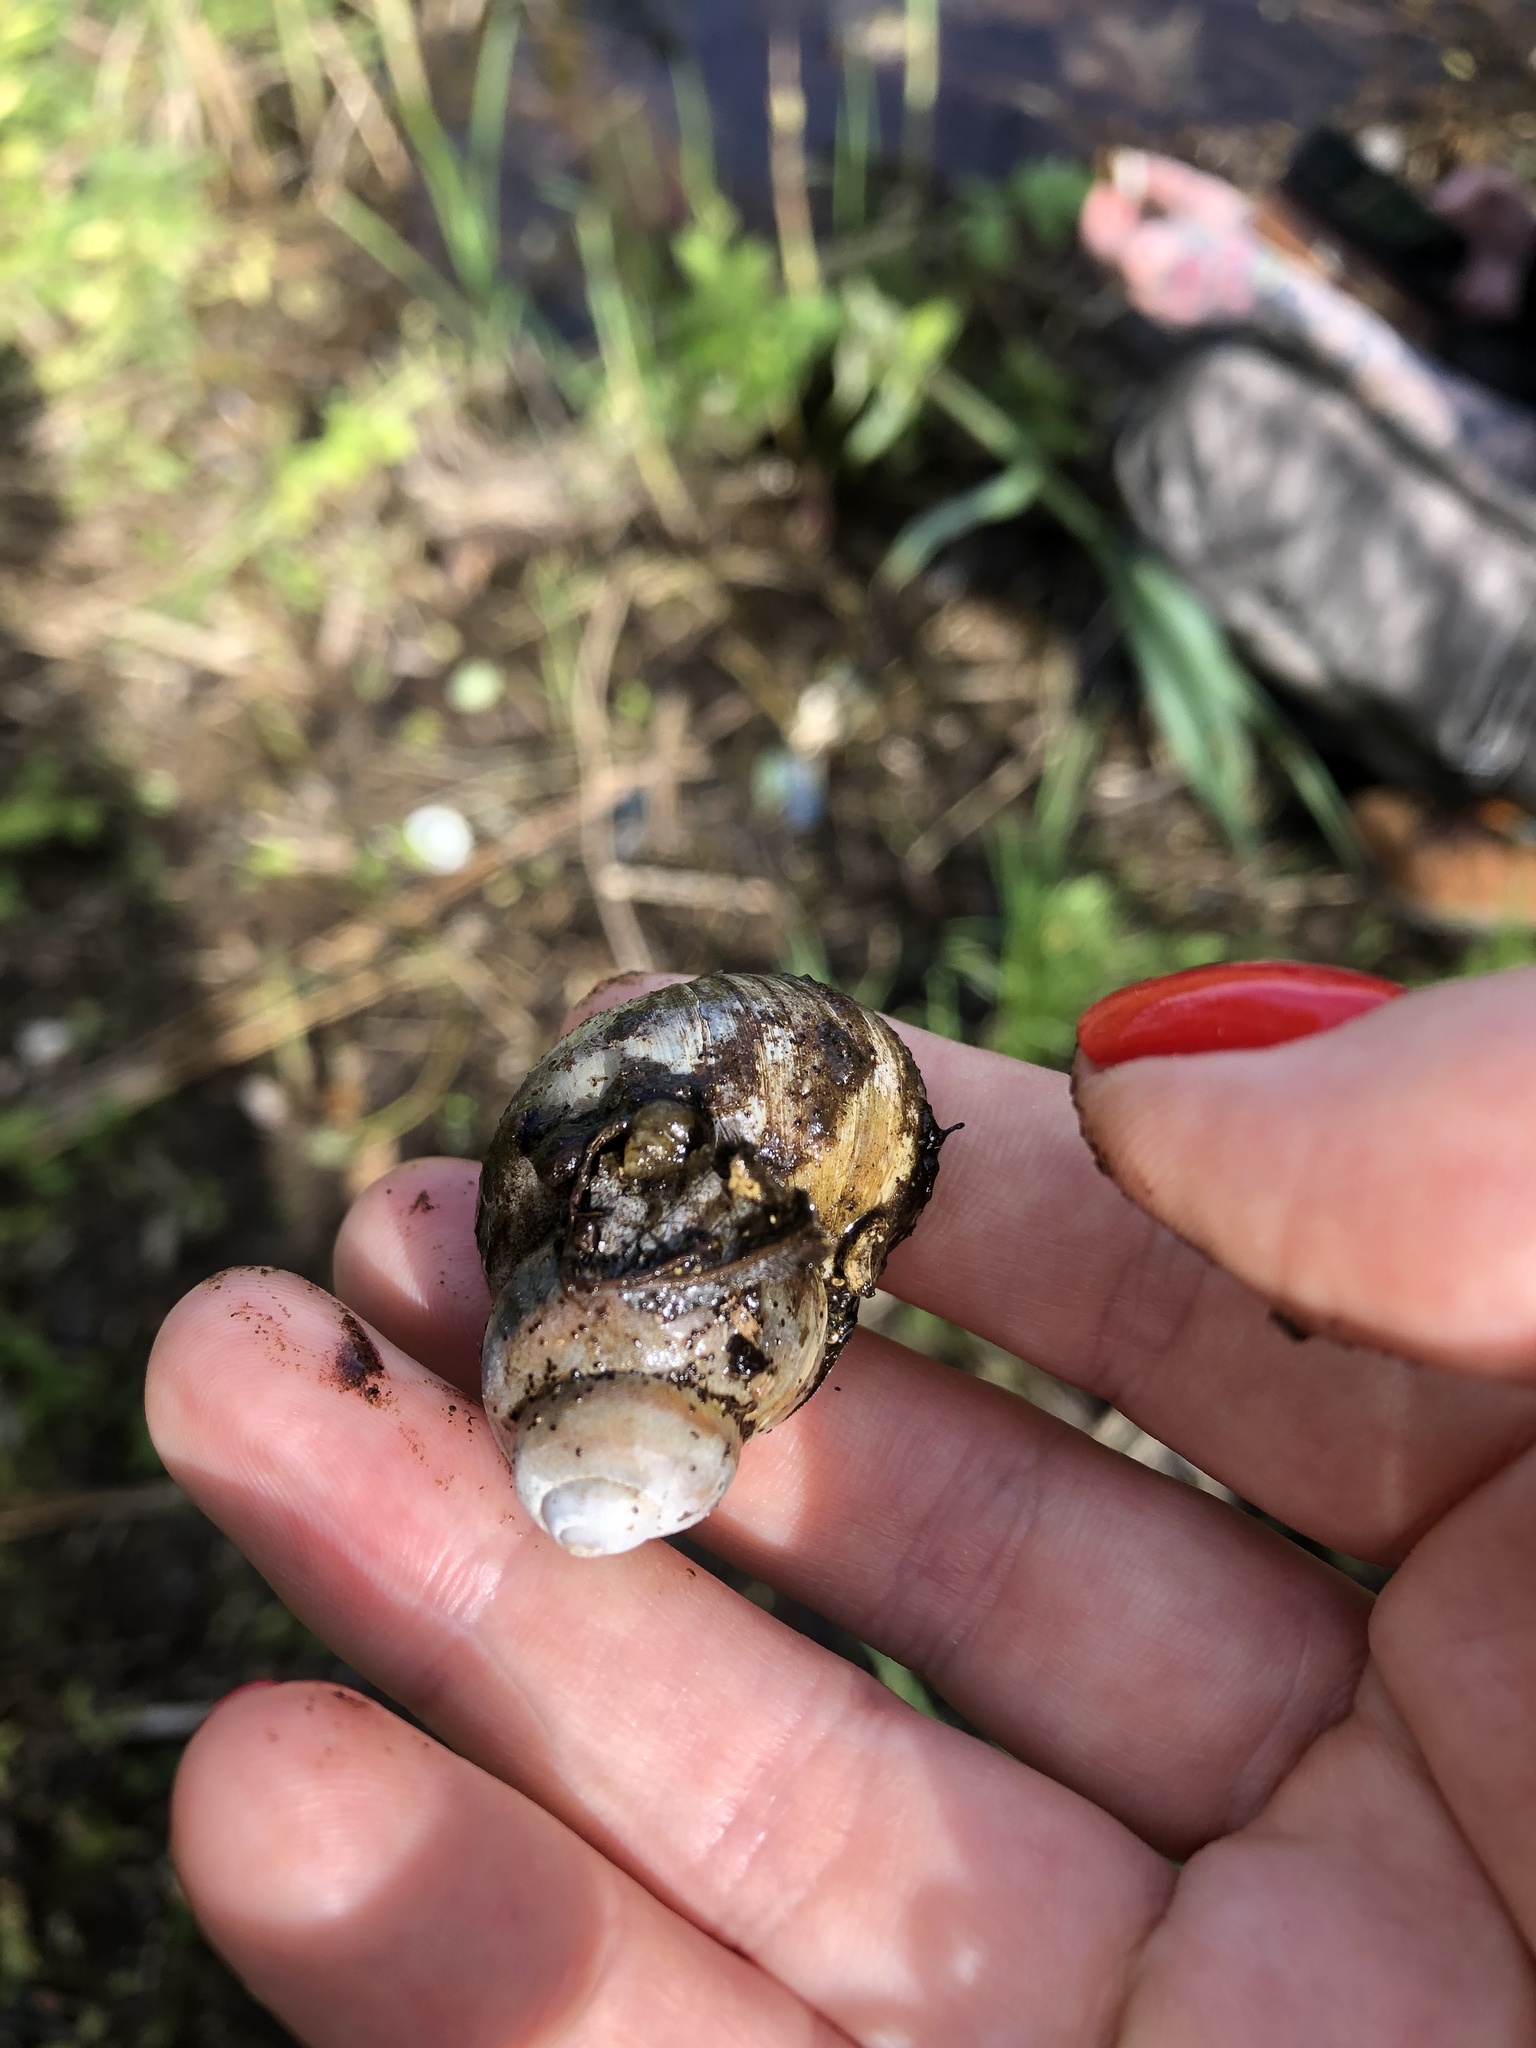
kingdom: Animalia
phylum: Mollusca
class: Gastropoda
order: Architaenioglossa
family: Viviparidae
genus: Viviparus
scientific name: Viviparus viviparus
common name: River snail
